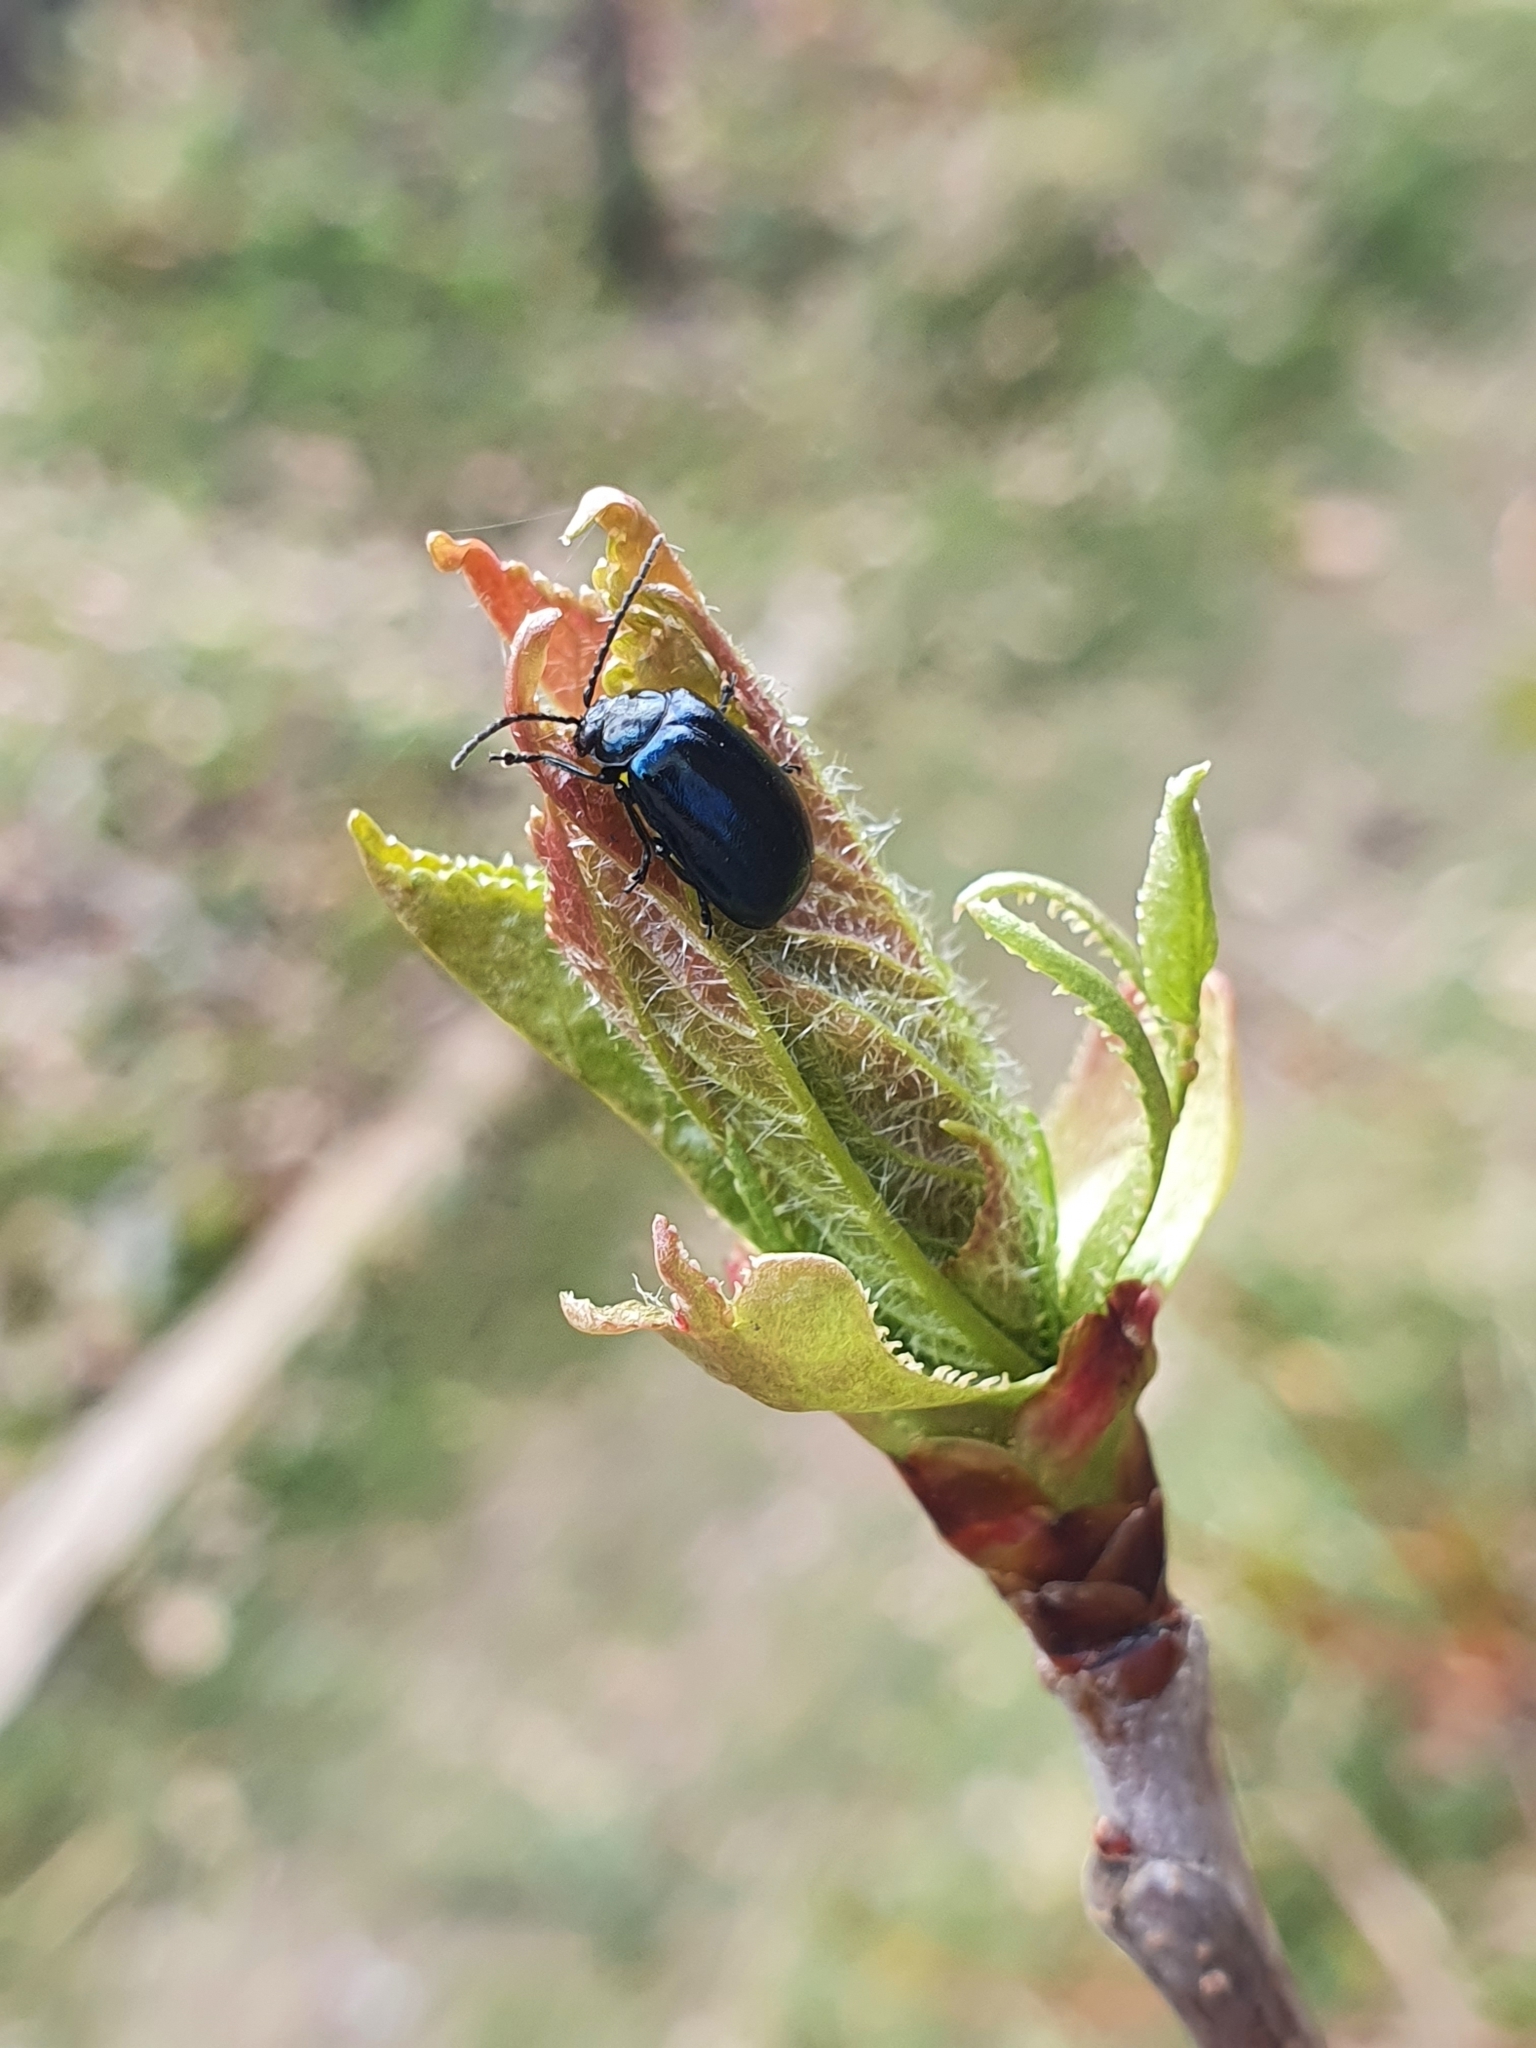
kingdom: Animalia
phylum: Arthropoda
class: Insecta
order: Coleoptera
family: Chrysomelidae
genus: Agelastica
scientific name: Agelastica alni
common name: Alder leaf beetle
